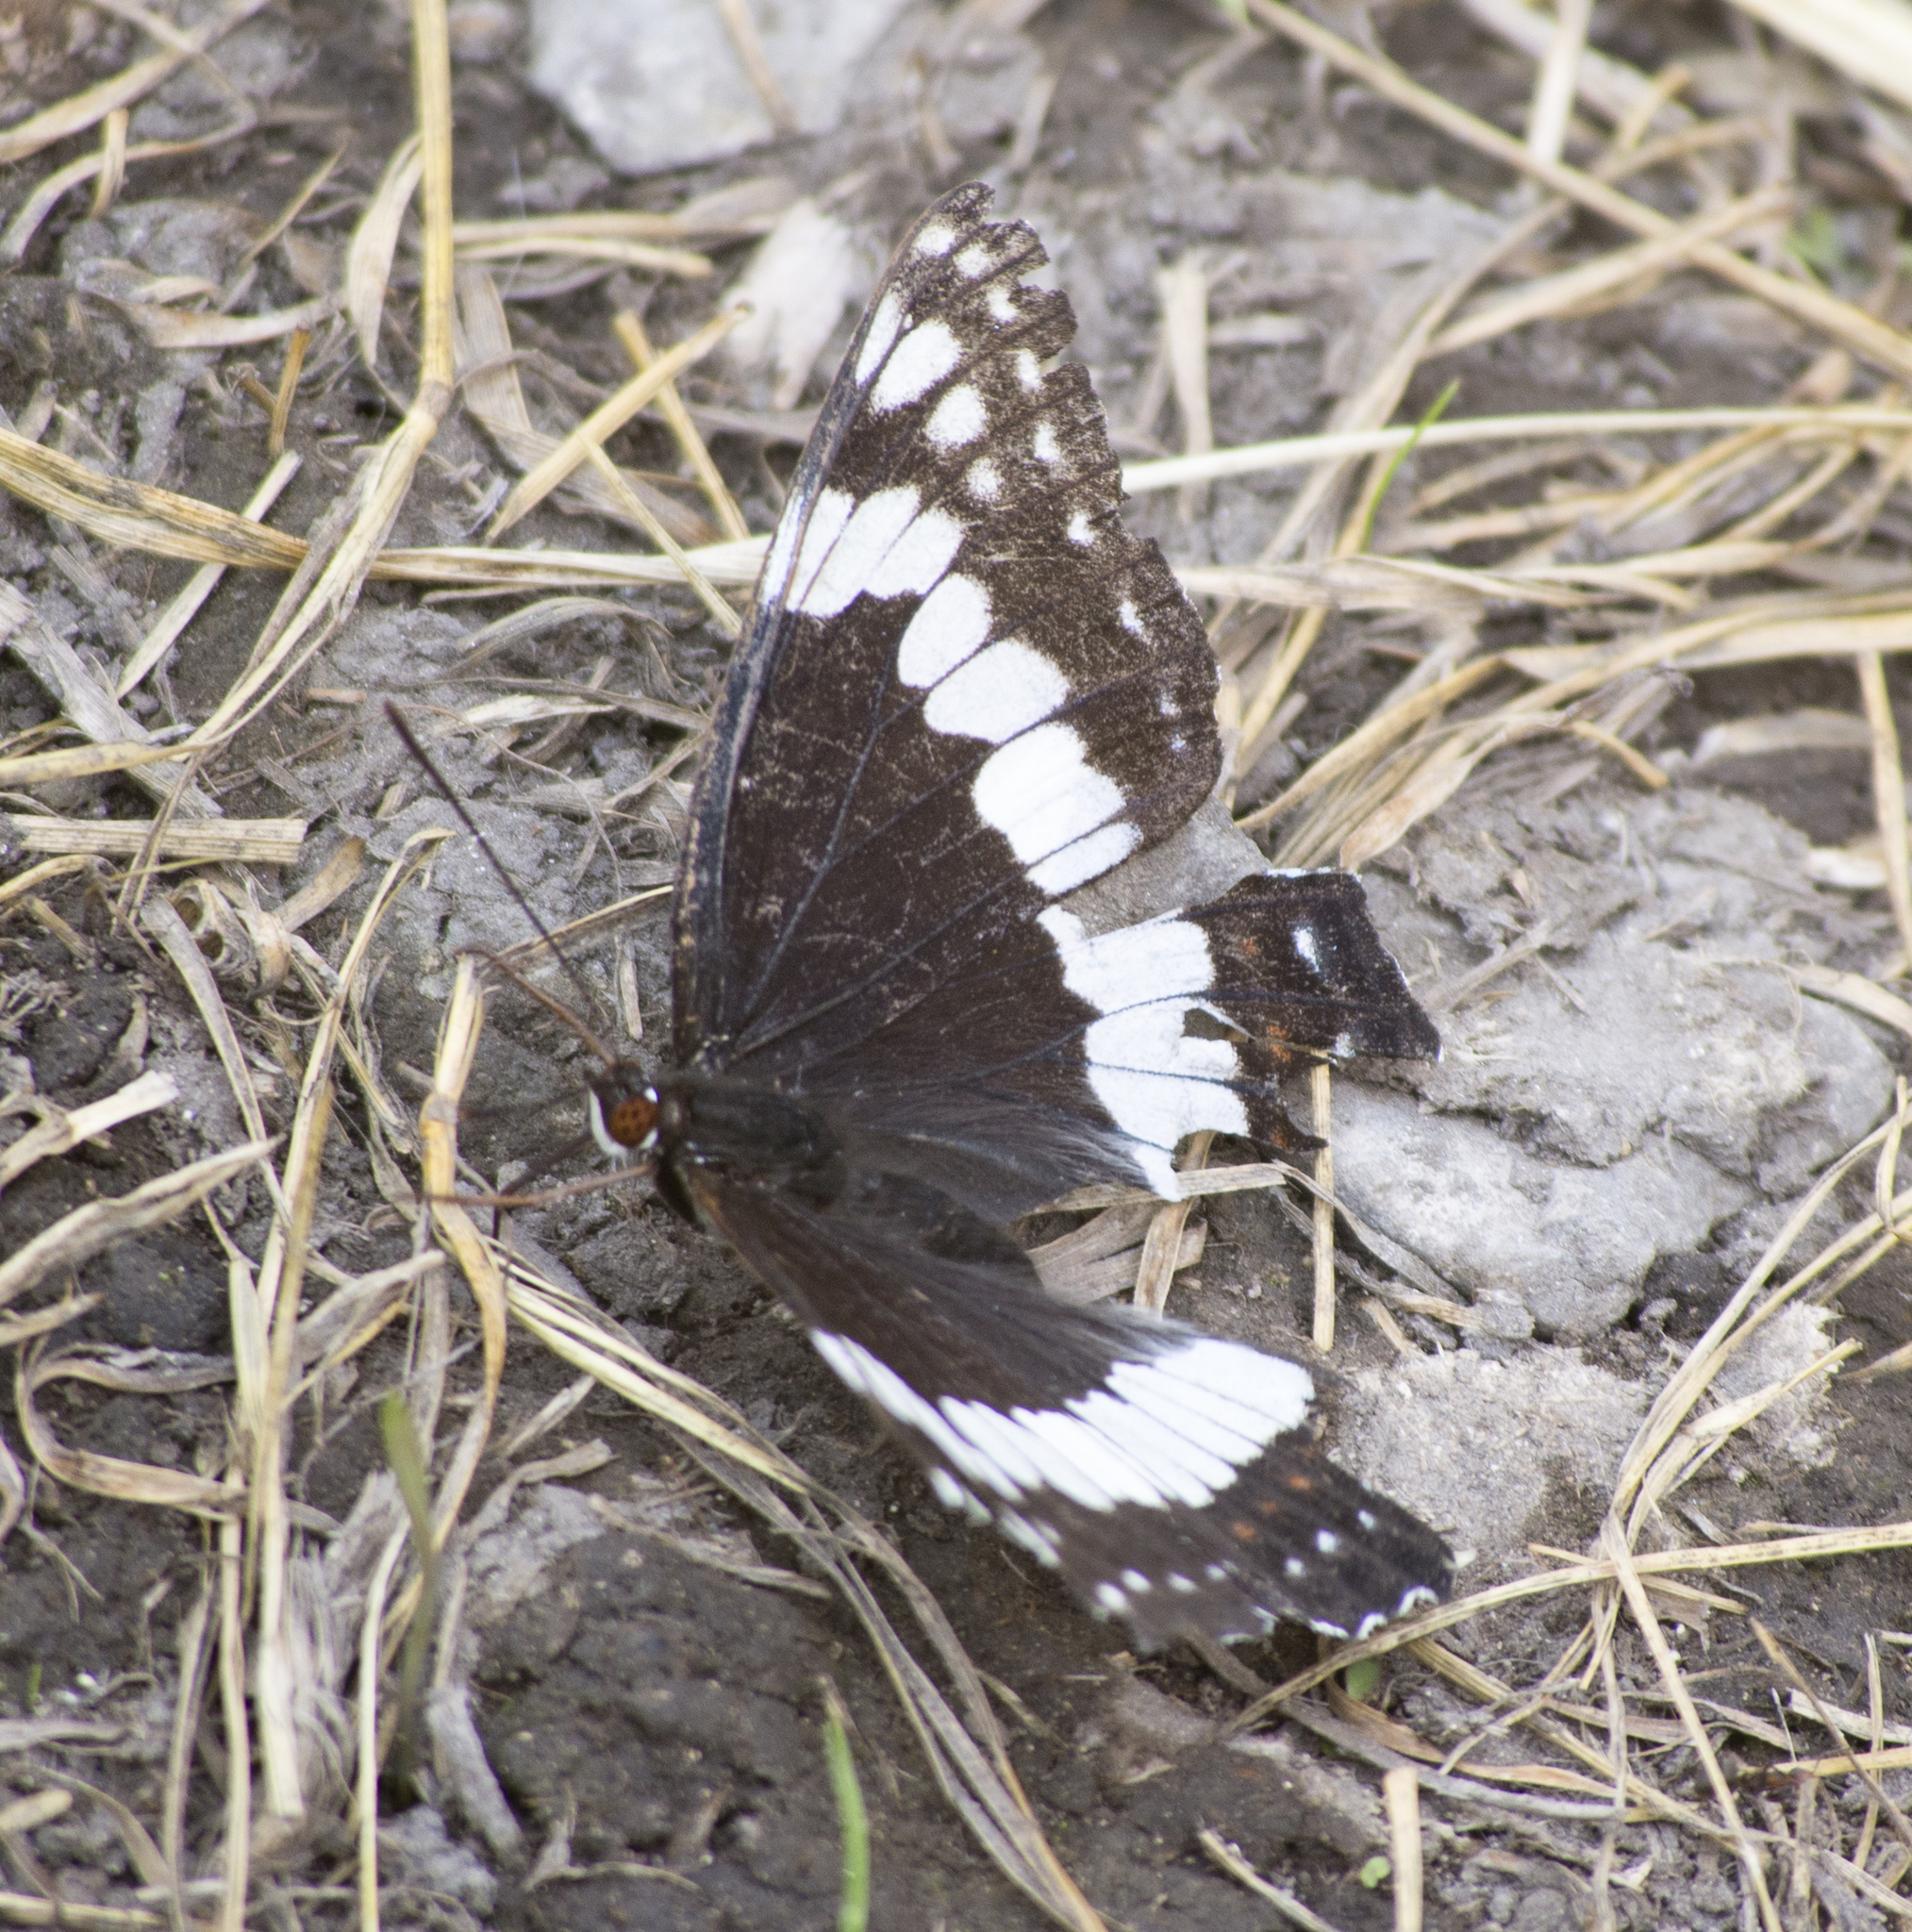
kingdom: Animalia
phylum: Arthropoda
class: Insecta
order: Lepidoptera
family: Nymphalidae
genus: Limenitis
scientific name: Limenitis weidemeyerii
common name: Weidemeyer's admiral
